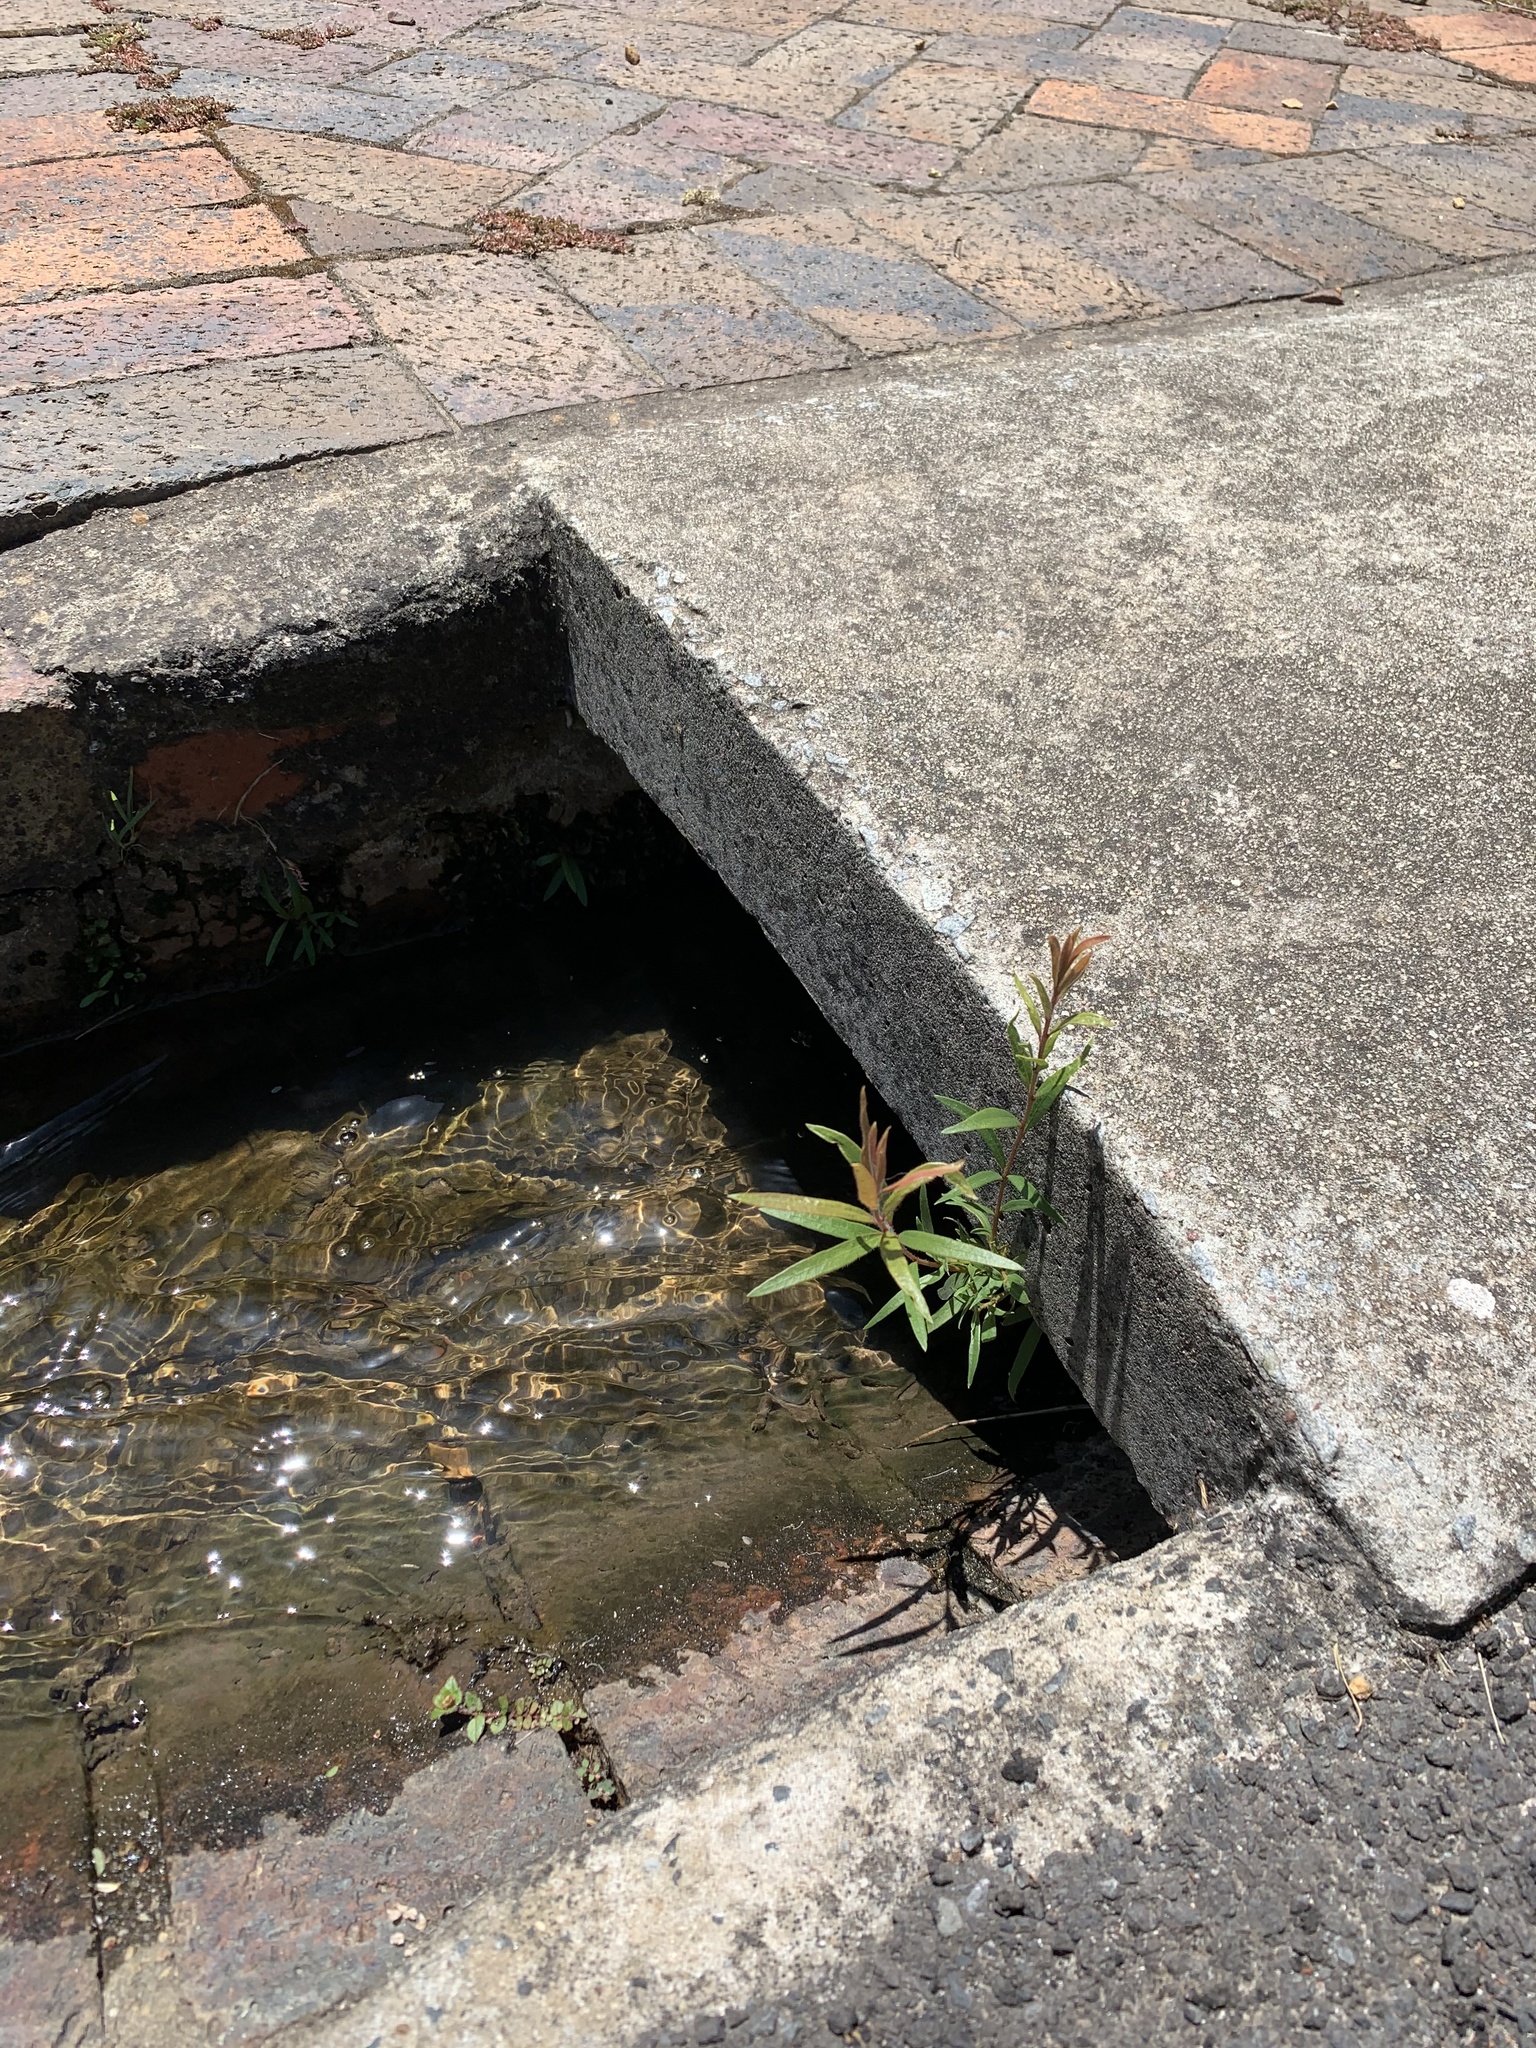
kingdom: Plantae
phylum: Tracheophyta
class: Magnoliopsida
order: Myrtales
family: Myrtaceae
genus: Callistemon
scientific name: Callistemon viminalis
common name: Drooping bottlebrush
